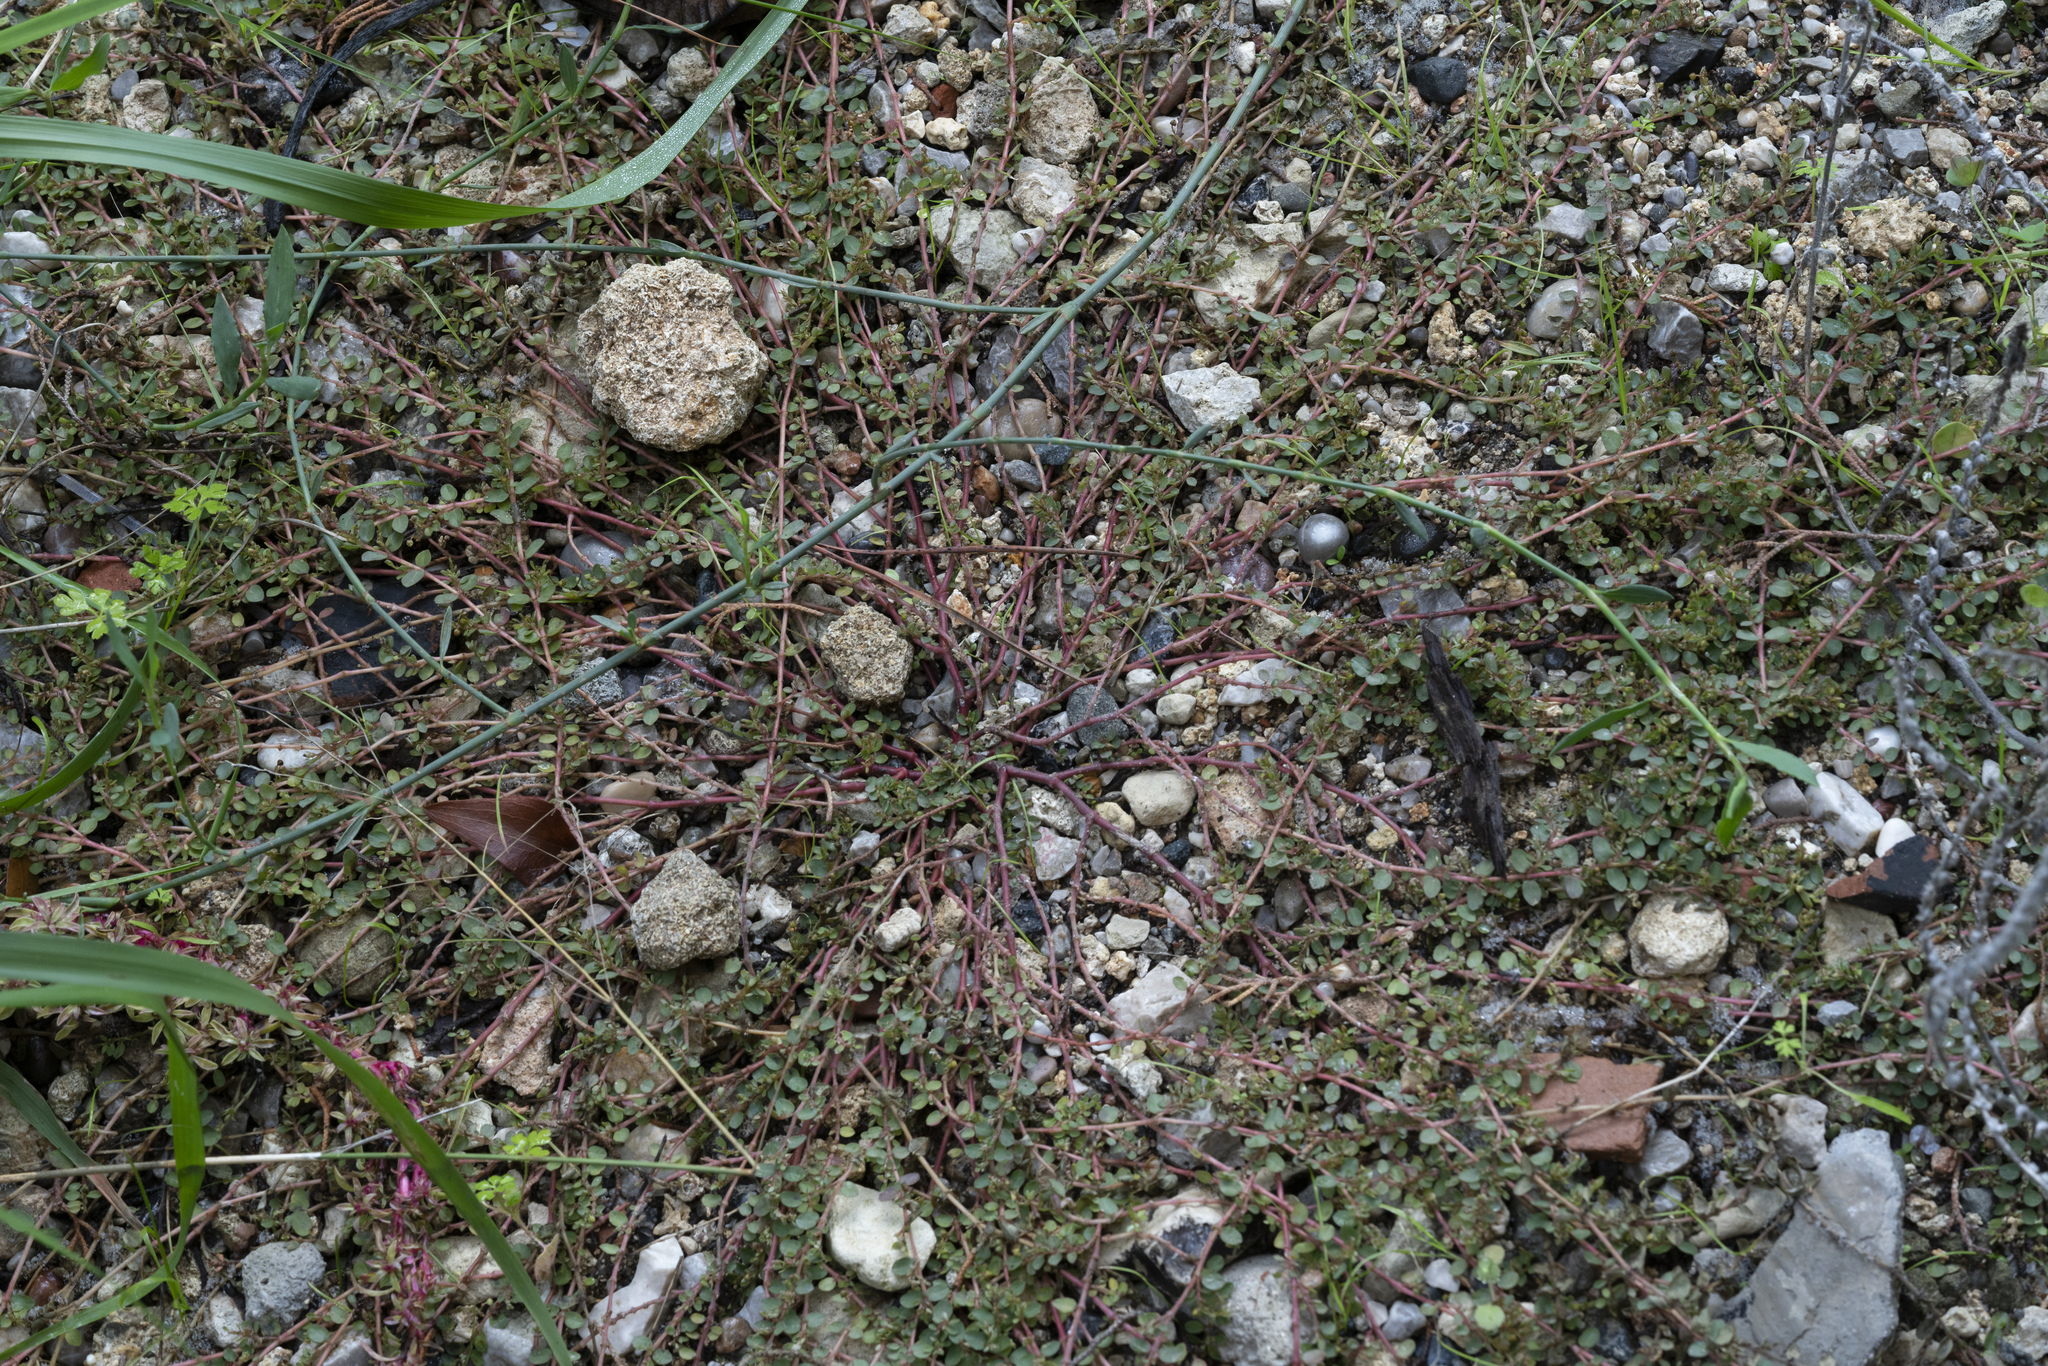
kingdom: Plantae
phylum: Tracheophyta
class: Magnoliopsida
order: Malpighiales
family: Euphorbiaceae
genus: Euphorbia
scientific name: Euphorbia prostrata
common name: Prostrate sandmat
